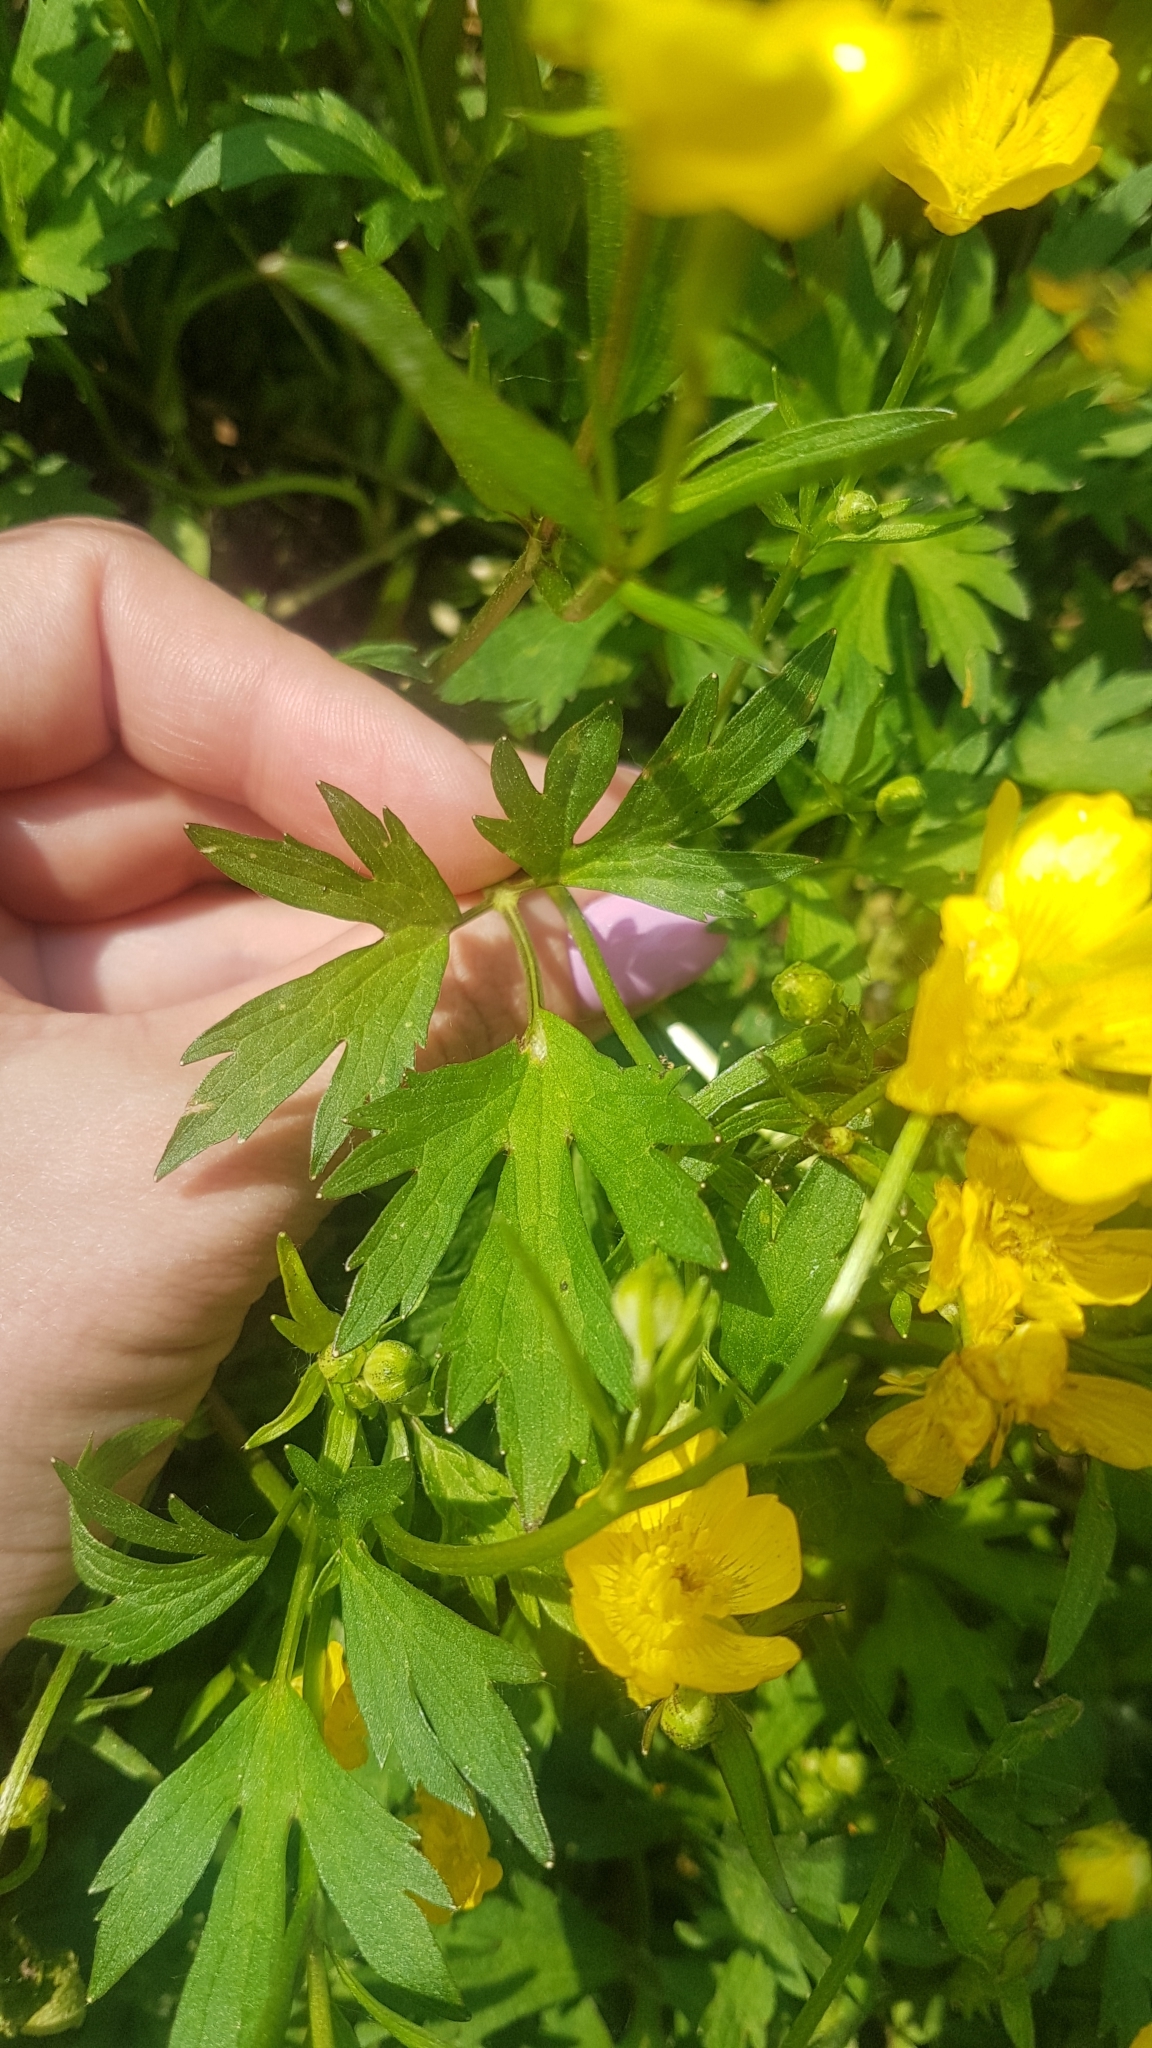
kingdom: Plantae
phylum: Tracheophyta
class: Magnoliopsida
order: Ranunculales
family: Ranunculaceae
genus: Ranunculus
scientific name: Ranunculus repens
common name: Creeping buttercup
